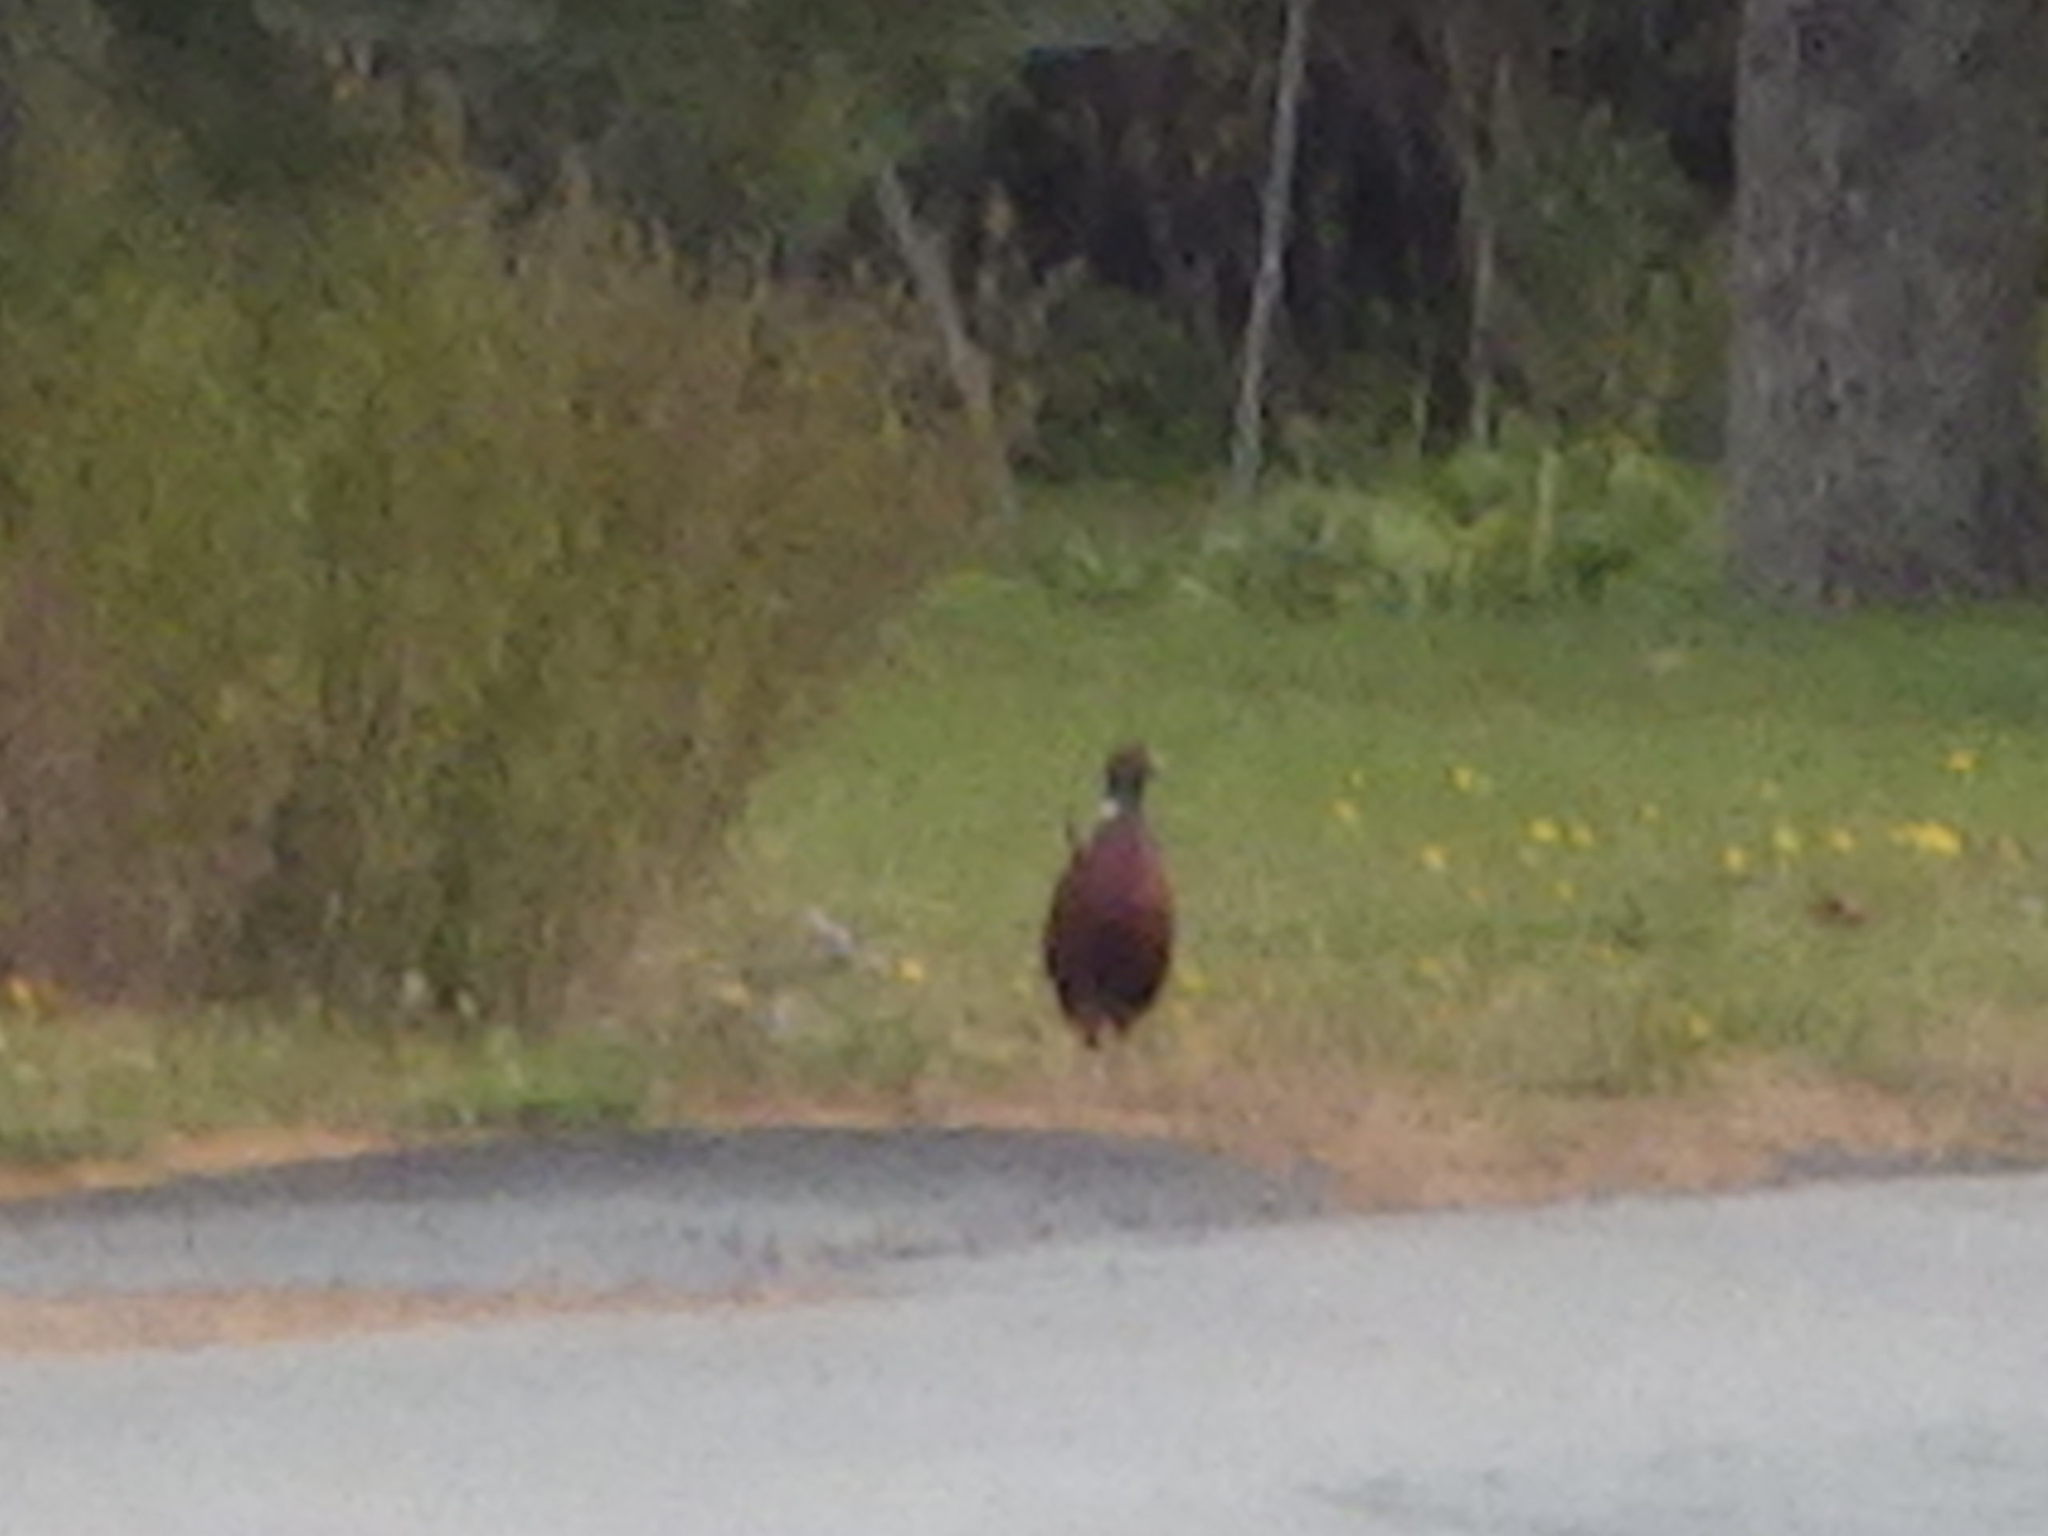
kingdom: Animalia
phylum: Chordata
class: Aves
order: Galliformes
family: Phasianidae
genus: Phasianus
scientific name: Phasianus colchicus
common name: Common pheasant
